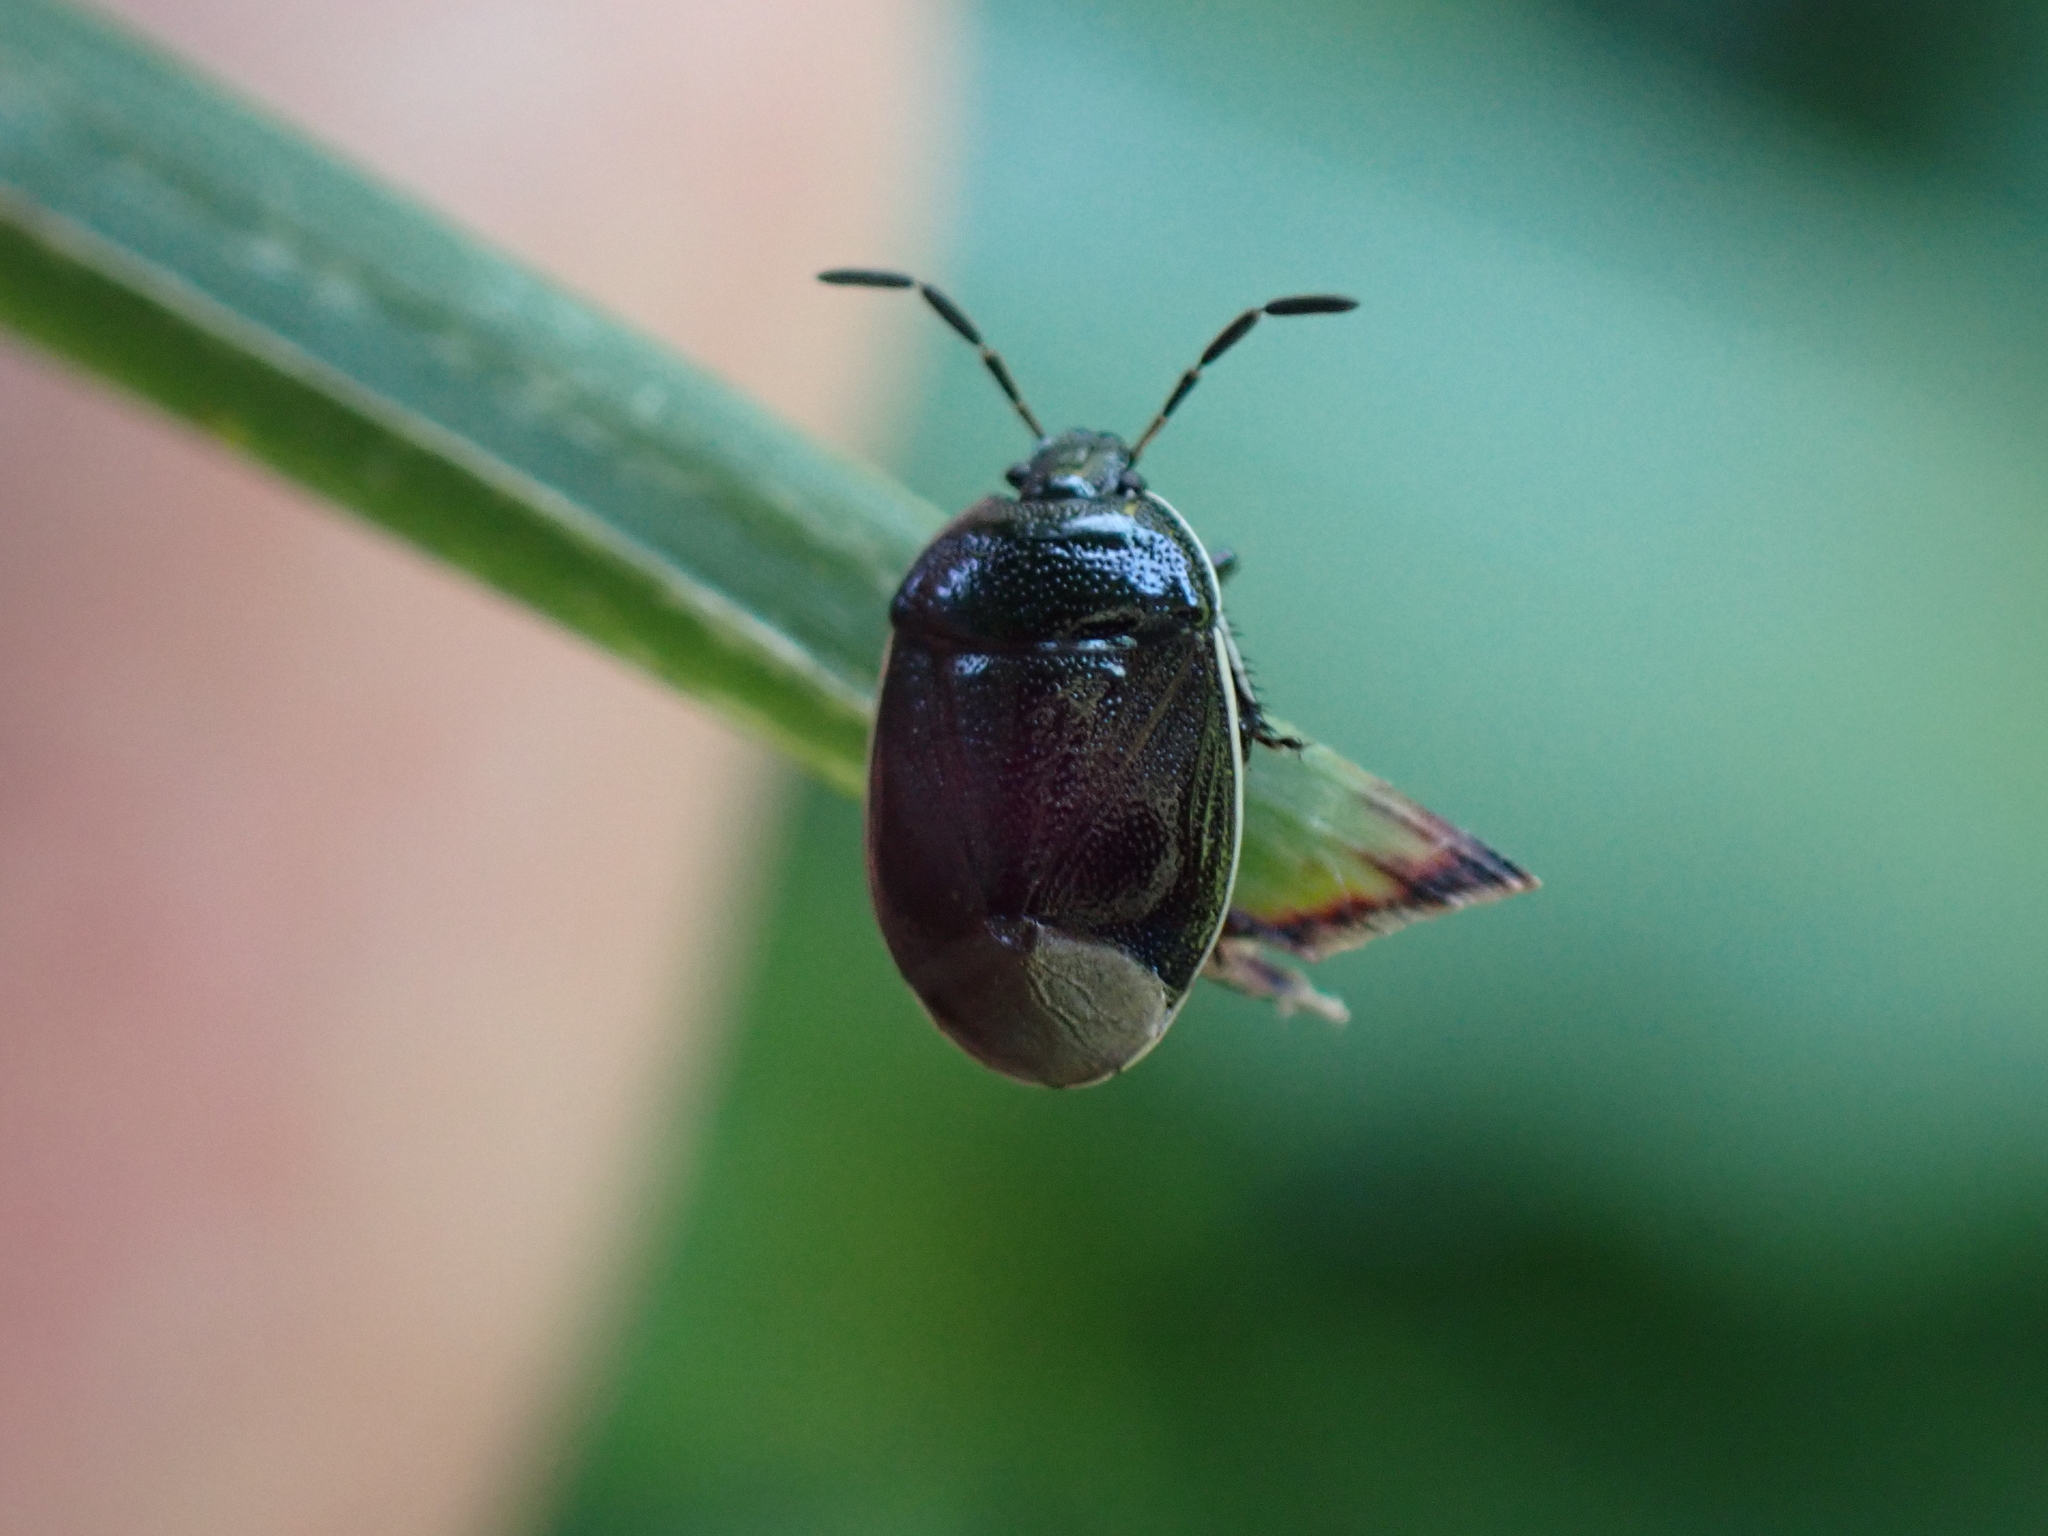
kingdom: Animalia
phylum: Arthropoda
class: Insecta
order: Hemiptera
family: Cydnidae
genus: Sehirus
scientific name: Sehirus cinctus
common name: White-margined burrower bug
